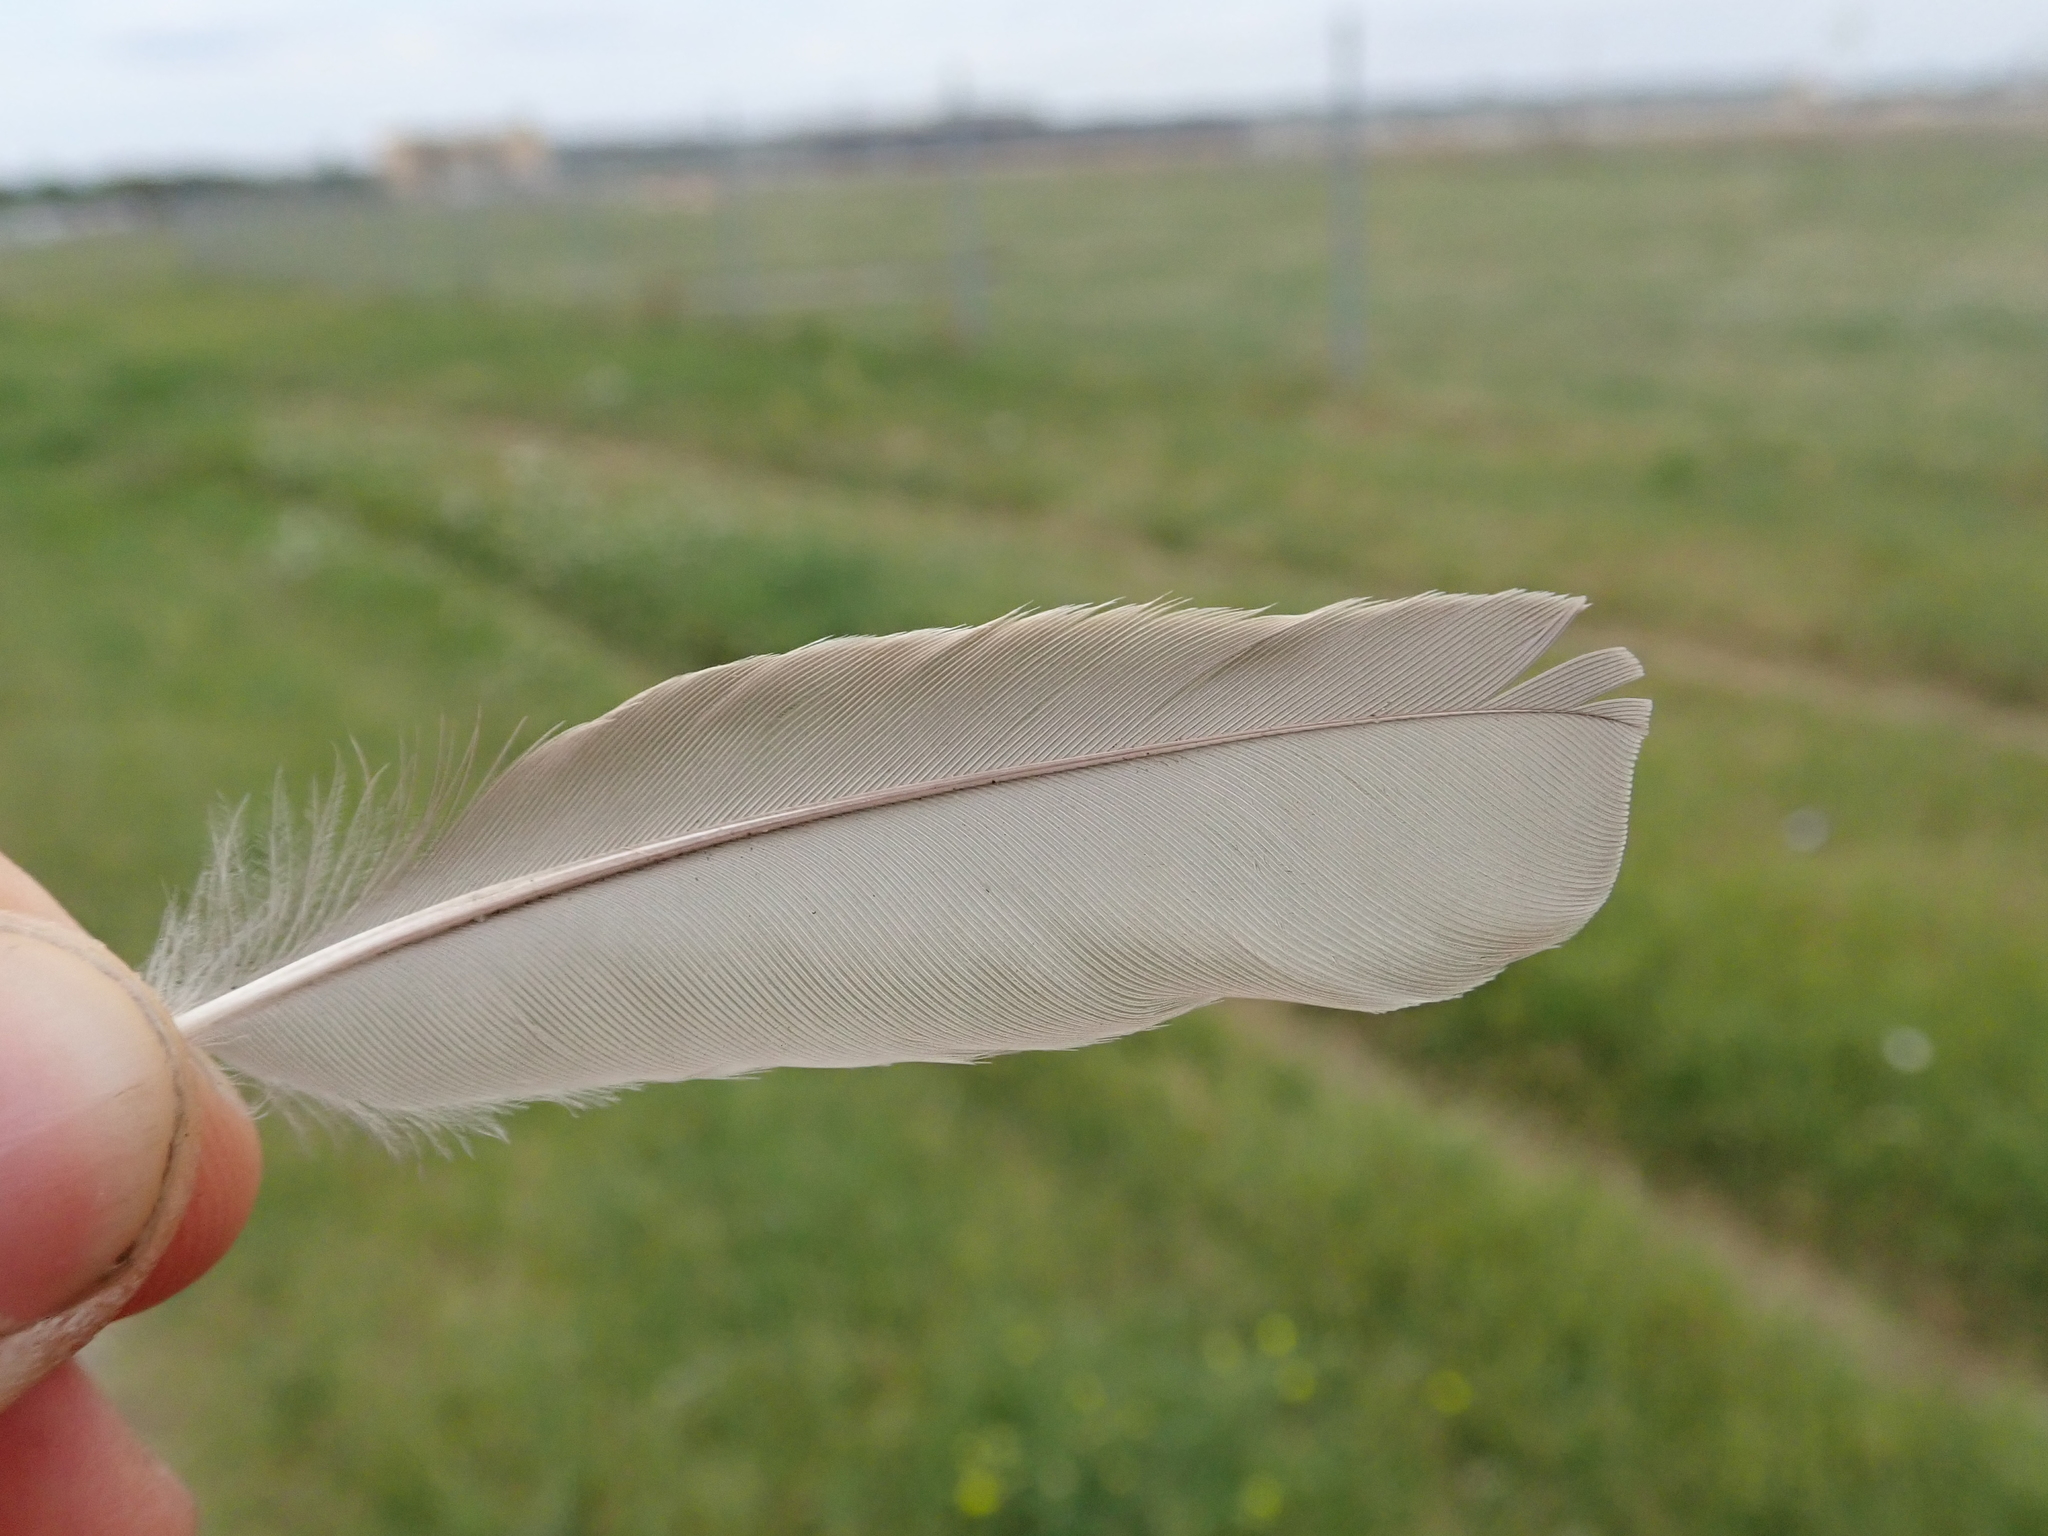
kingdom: Animalia
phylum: Chordata
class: Aves
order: Passeriformes
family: Sturnidae
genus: Sturnus
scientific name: Sturnus vulgaris
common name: Common starling
